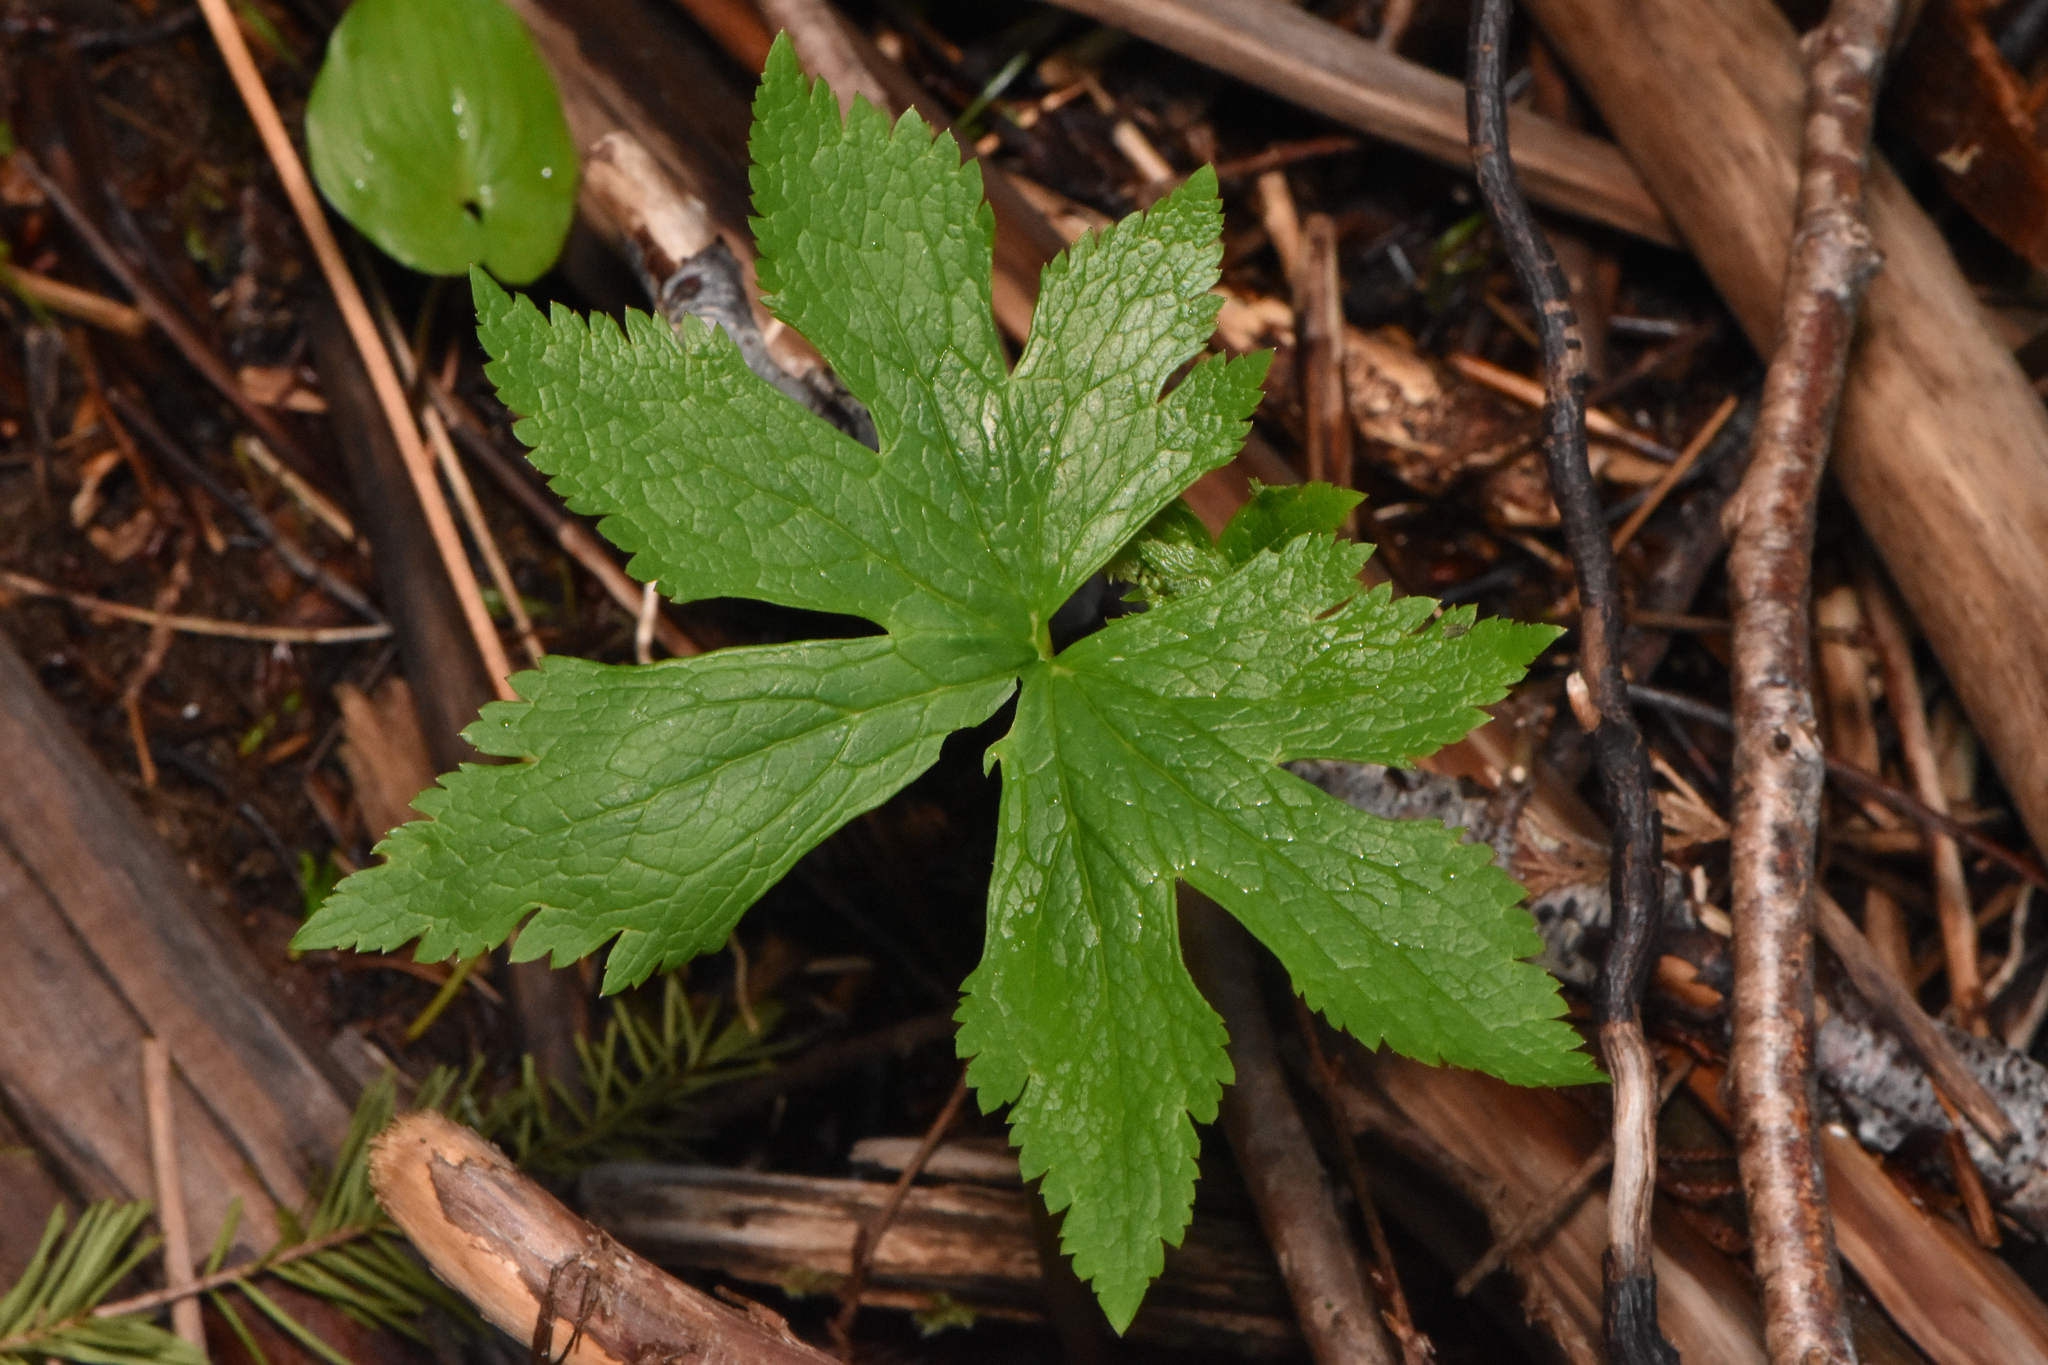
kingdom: Plantae
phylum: Tracheophyta
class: Magnoliopsida
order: Ranunculales
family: Ranunculaceae
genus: Trautvetteria
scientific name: Trautvetteria carolinensis
